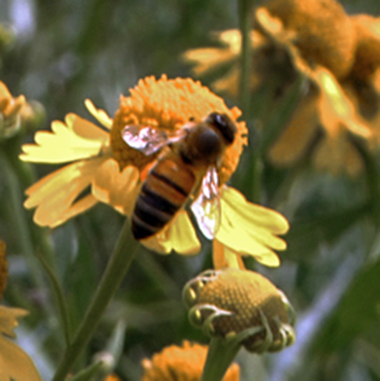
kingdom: Animalia
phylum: Arthropoda
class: Insecta
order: Hymenoptera
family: Apidae
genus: Apis
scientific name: Apis mellifera
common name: Honey bee
